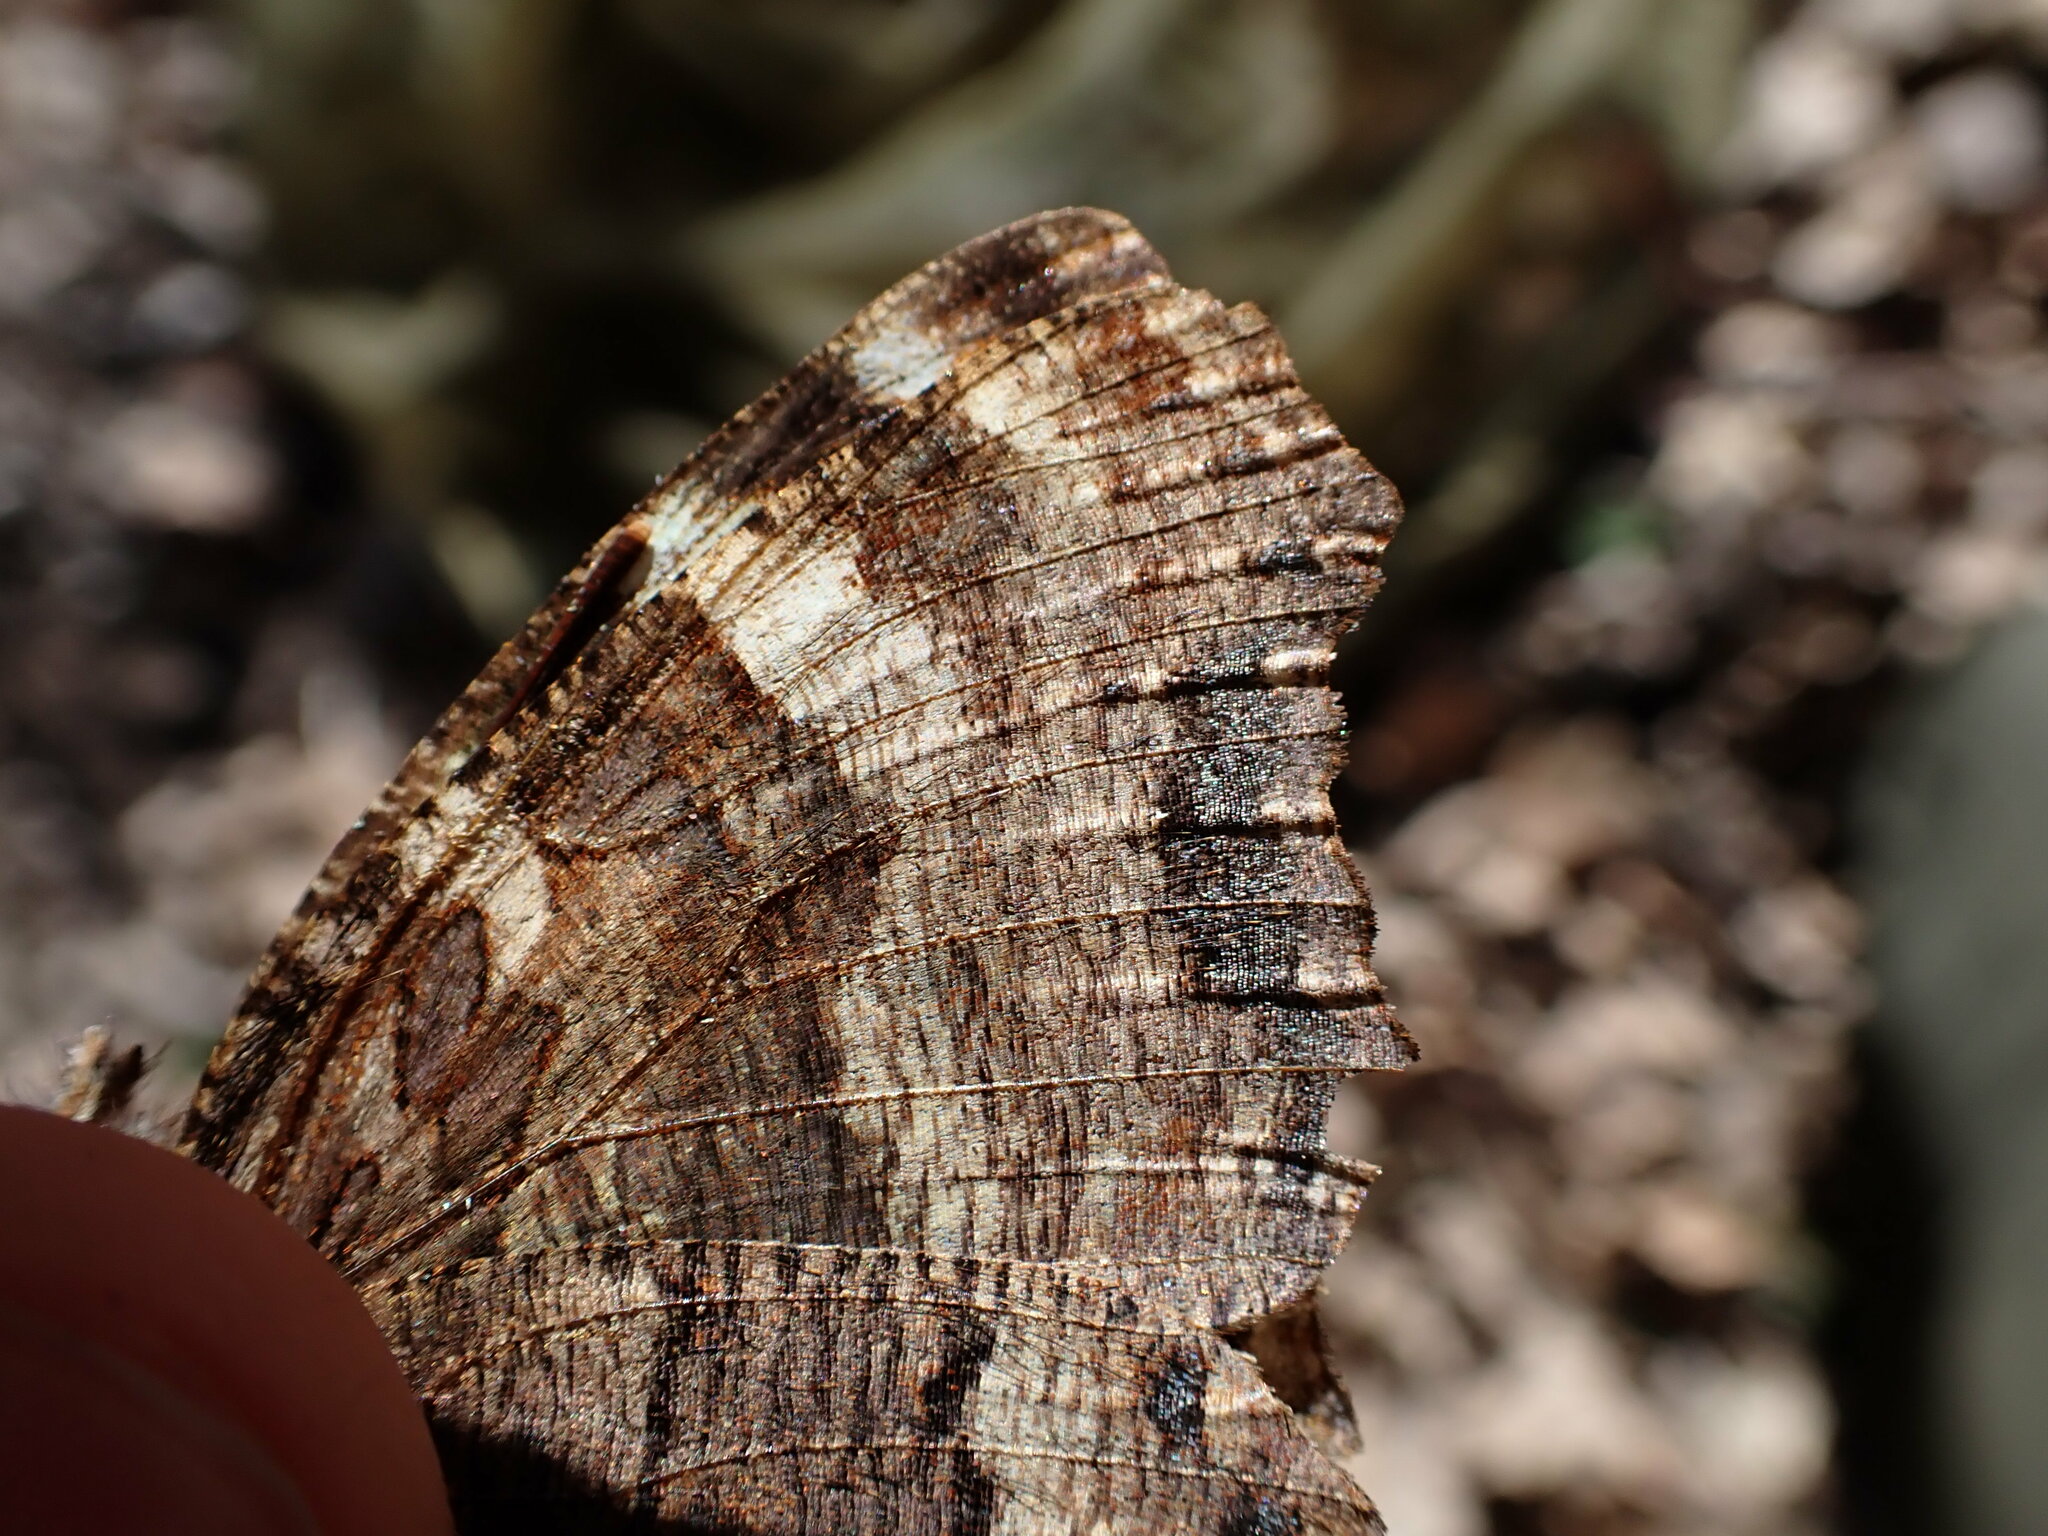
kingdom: Animalia
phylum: Arthropoda
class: Insecta
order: Lepidoptera
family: Nymphalidae
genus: Nymphalis
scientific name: Nymphalis polychloros
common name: Large tortoiseshell
